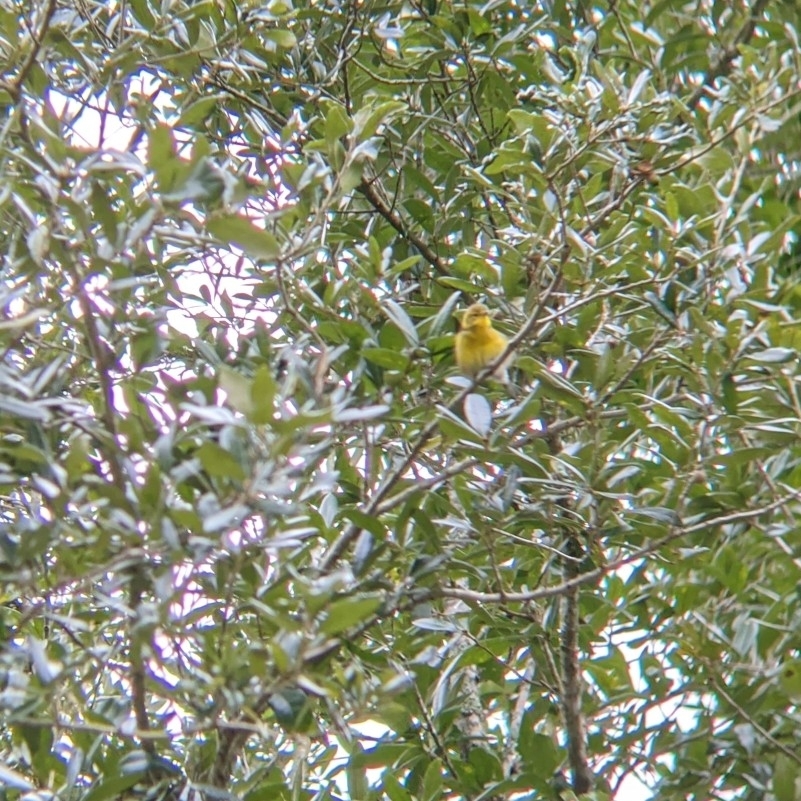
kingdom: Animalia
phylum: Chordata
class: Aves
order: Passeriformes
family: Parulidae
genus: Setophaga
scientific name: Setophaga pinus
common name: Pine warbler
